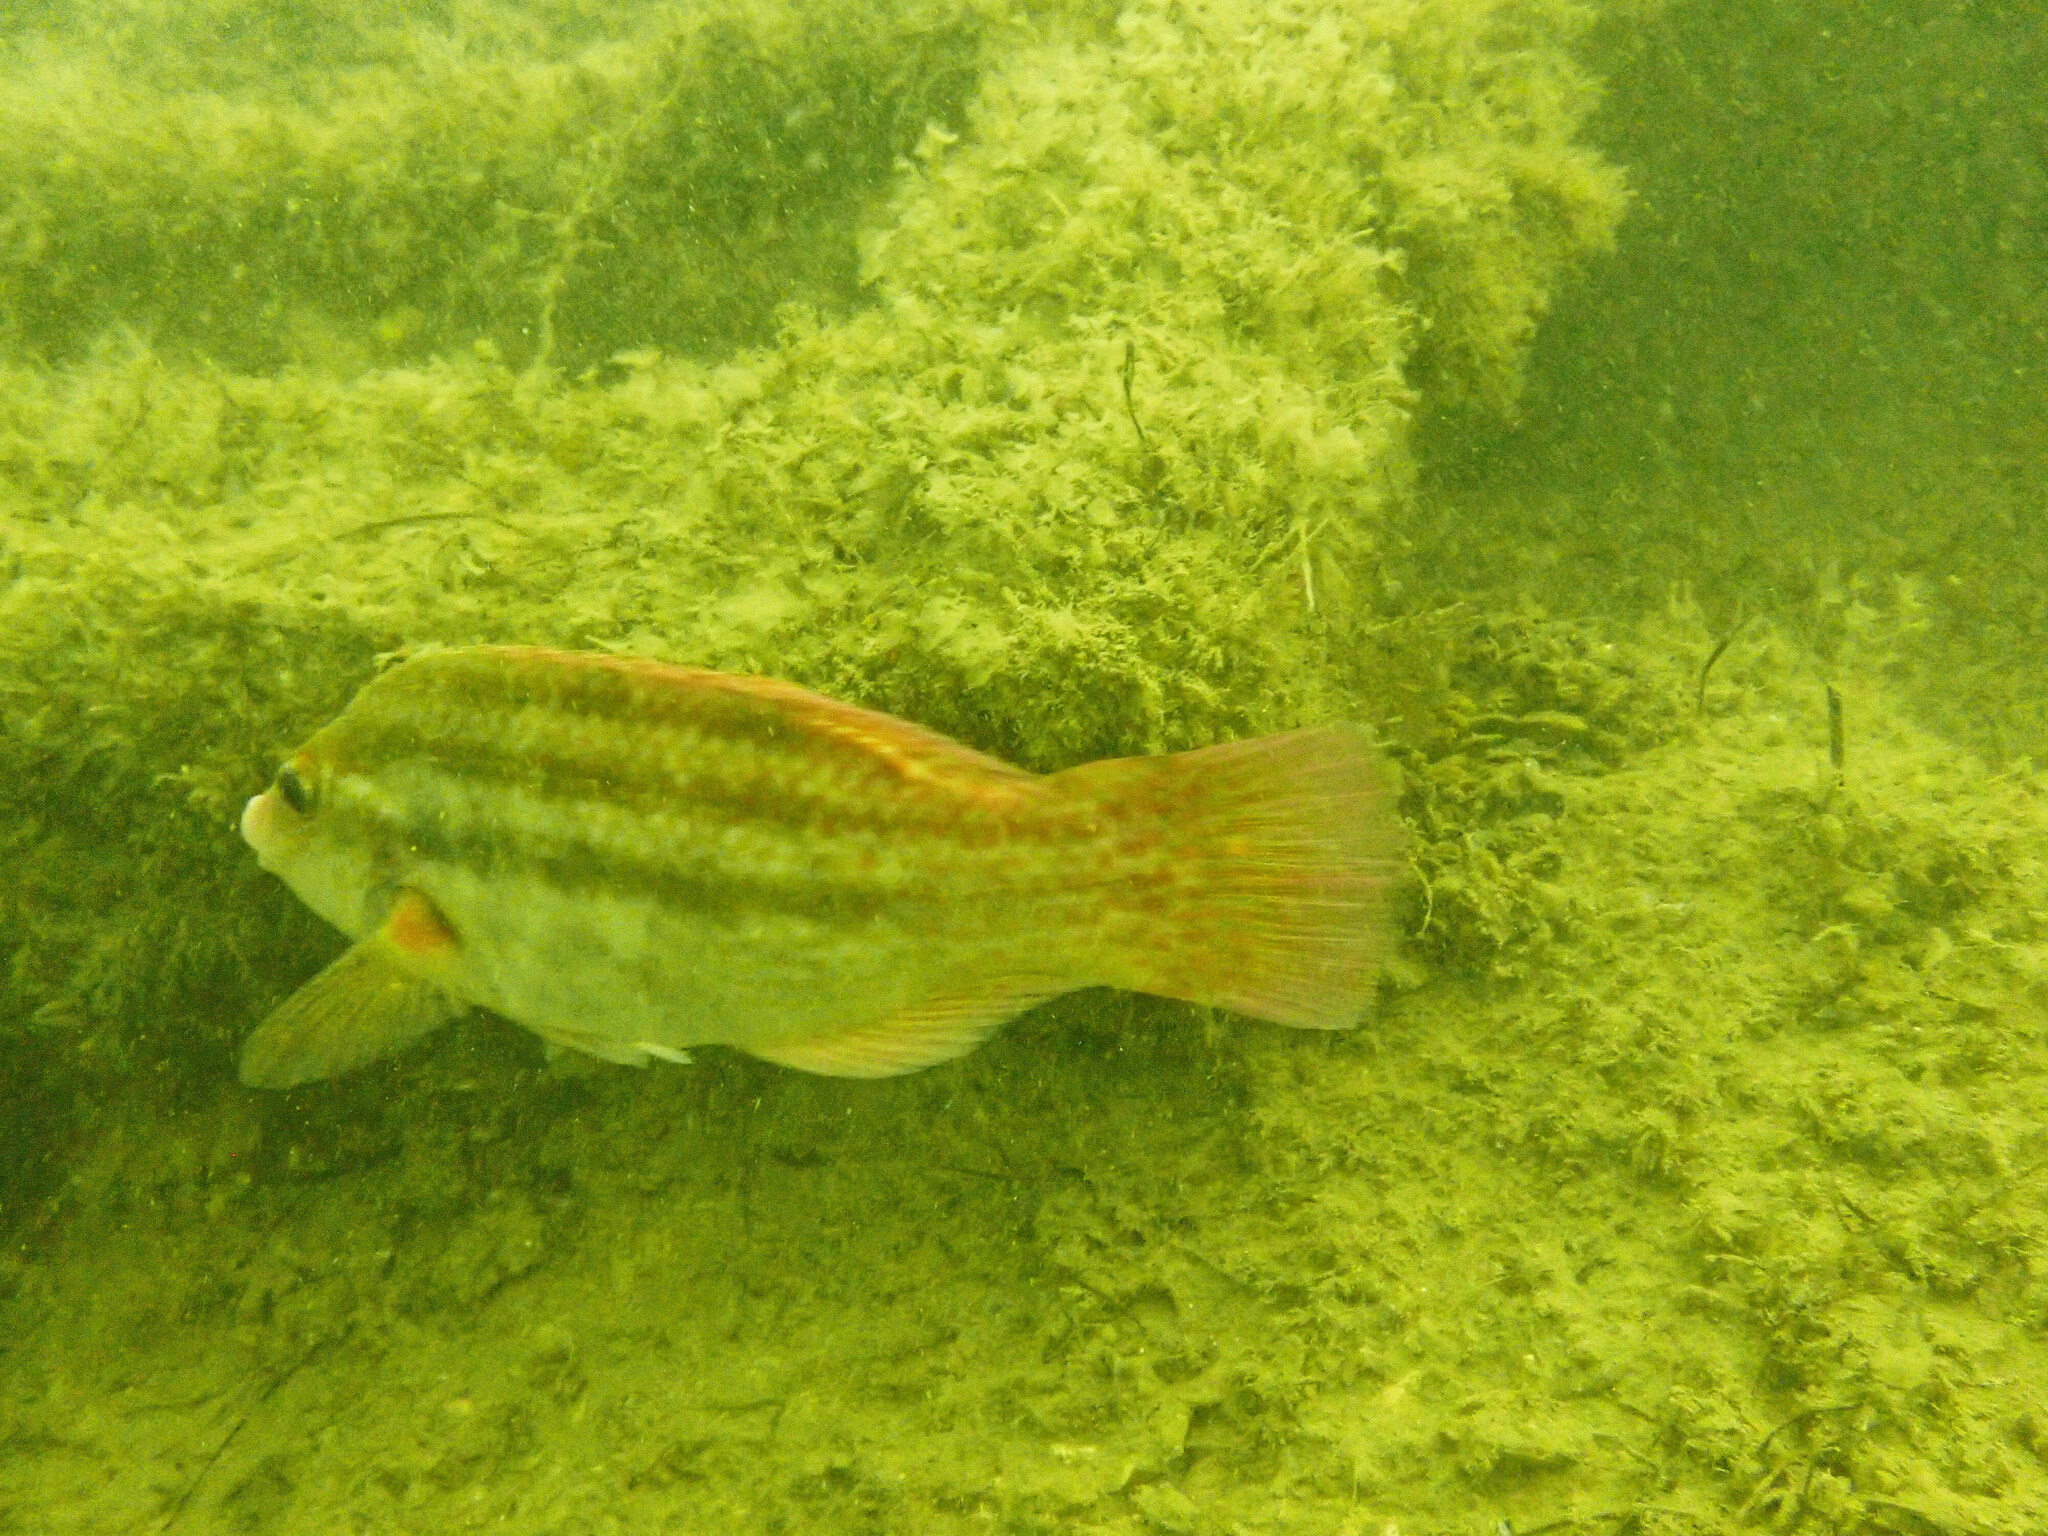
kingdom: Animalia
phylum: Chordata
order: Perciformes
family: Labridae
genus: Symphodus
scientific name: Symphodus bailloni
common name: Baillon's wrasse
